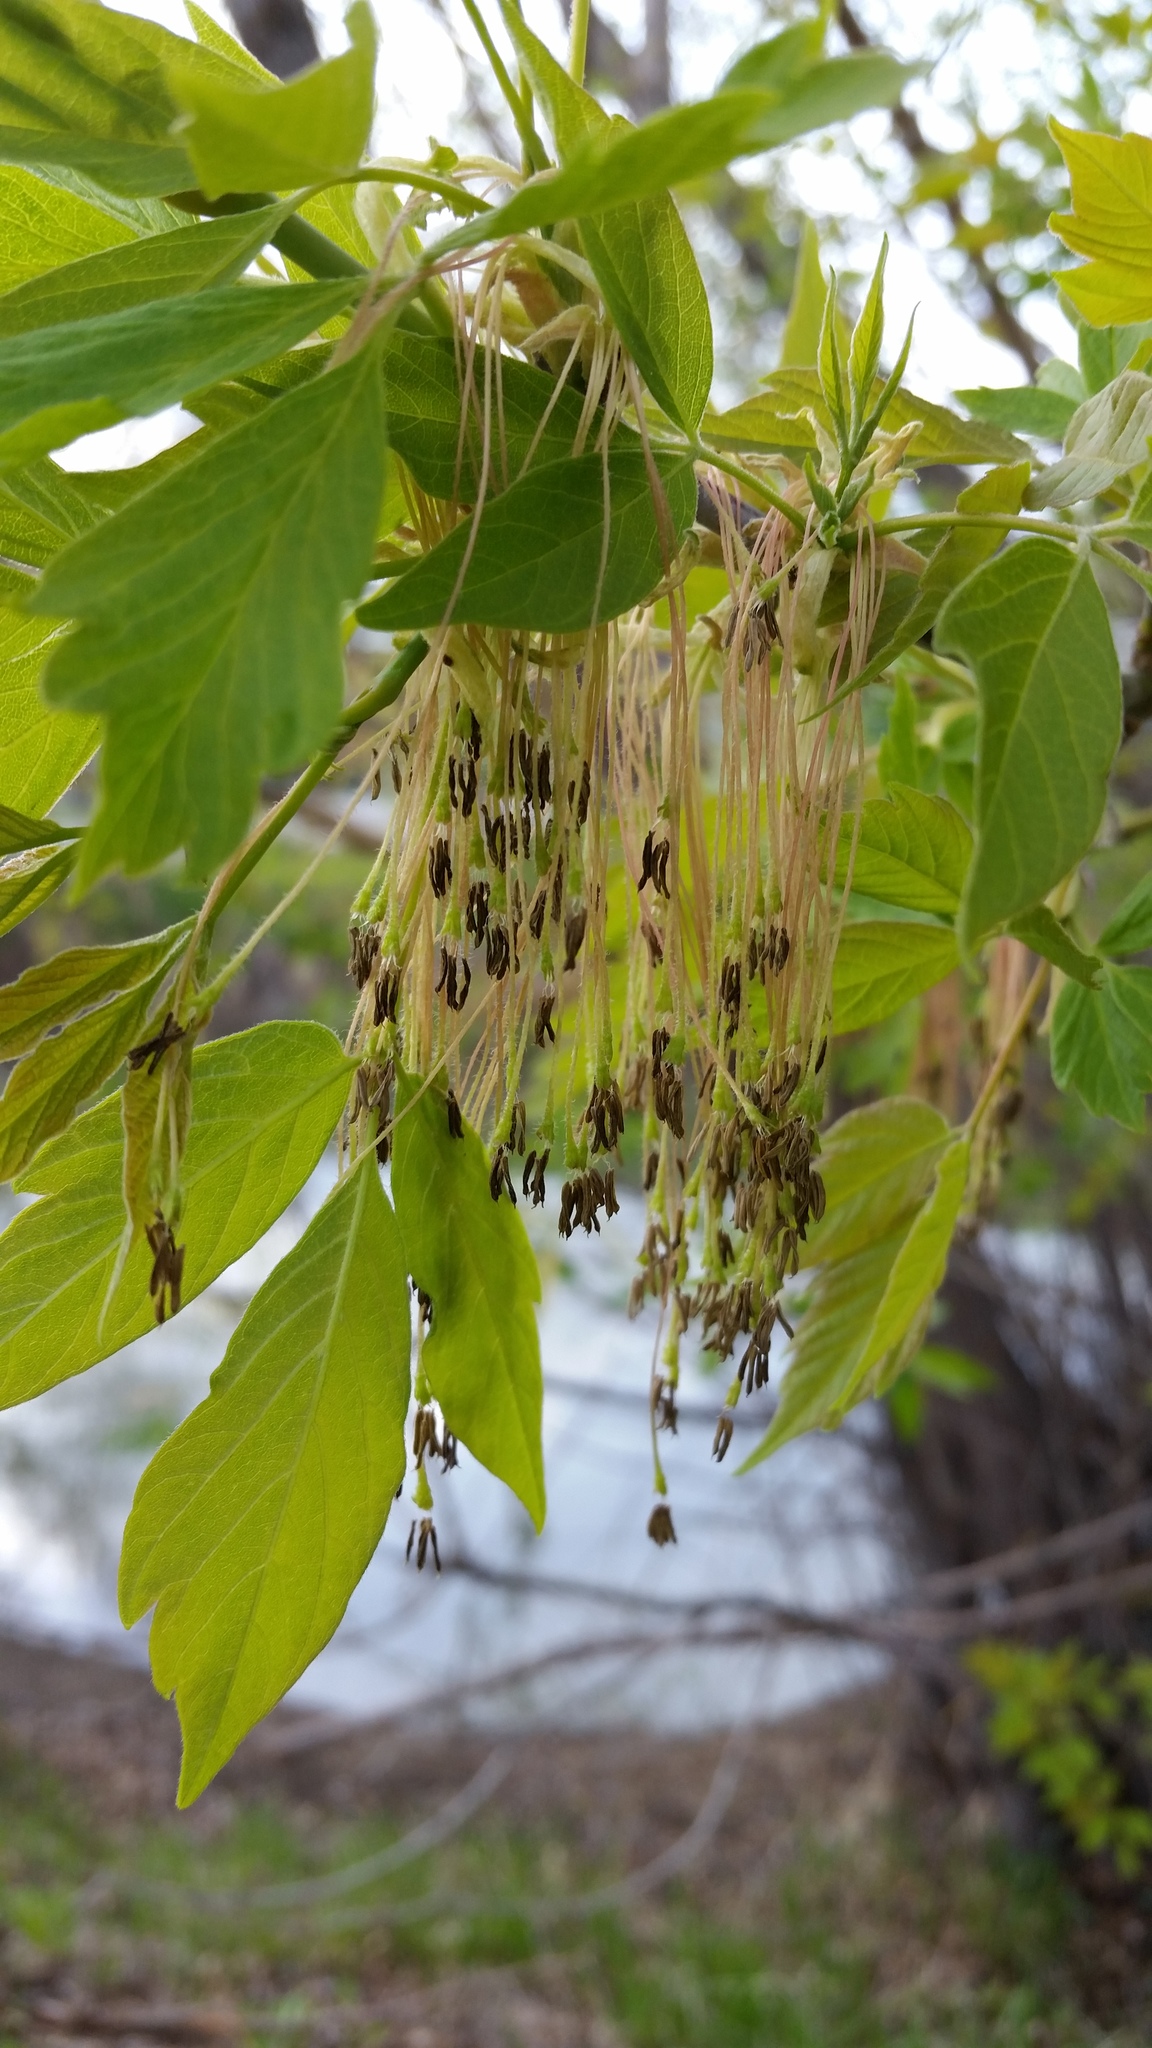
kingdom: Plantae
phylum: Tracheophyta
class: Magnoliopsida
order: Sapindales
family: Sapindaceae
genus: Acer
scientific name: Acer negundo
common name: Ashleaf maple
